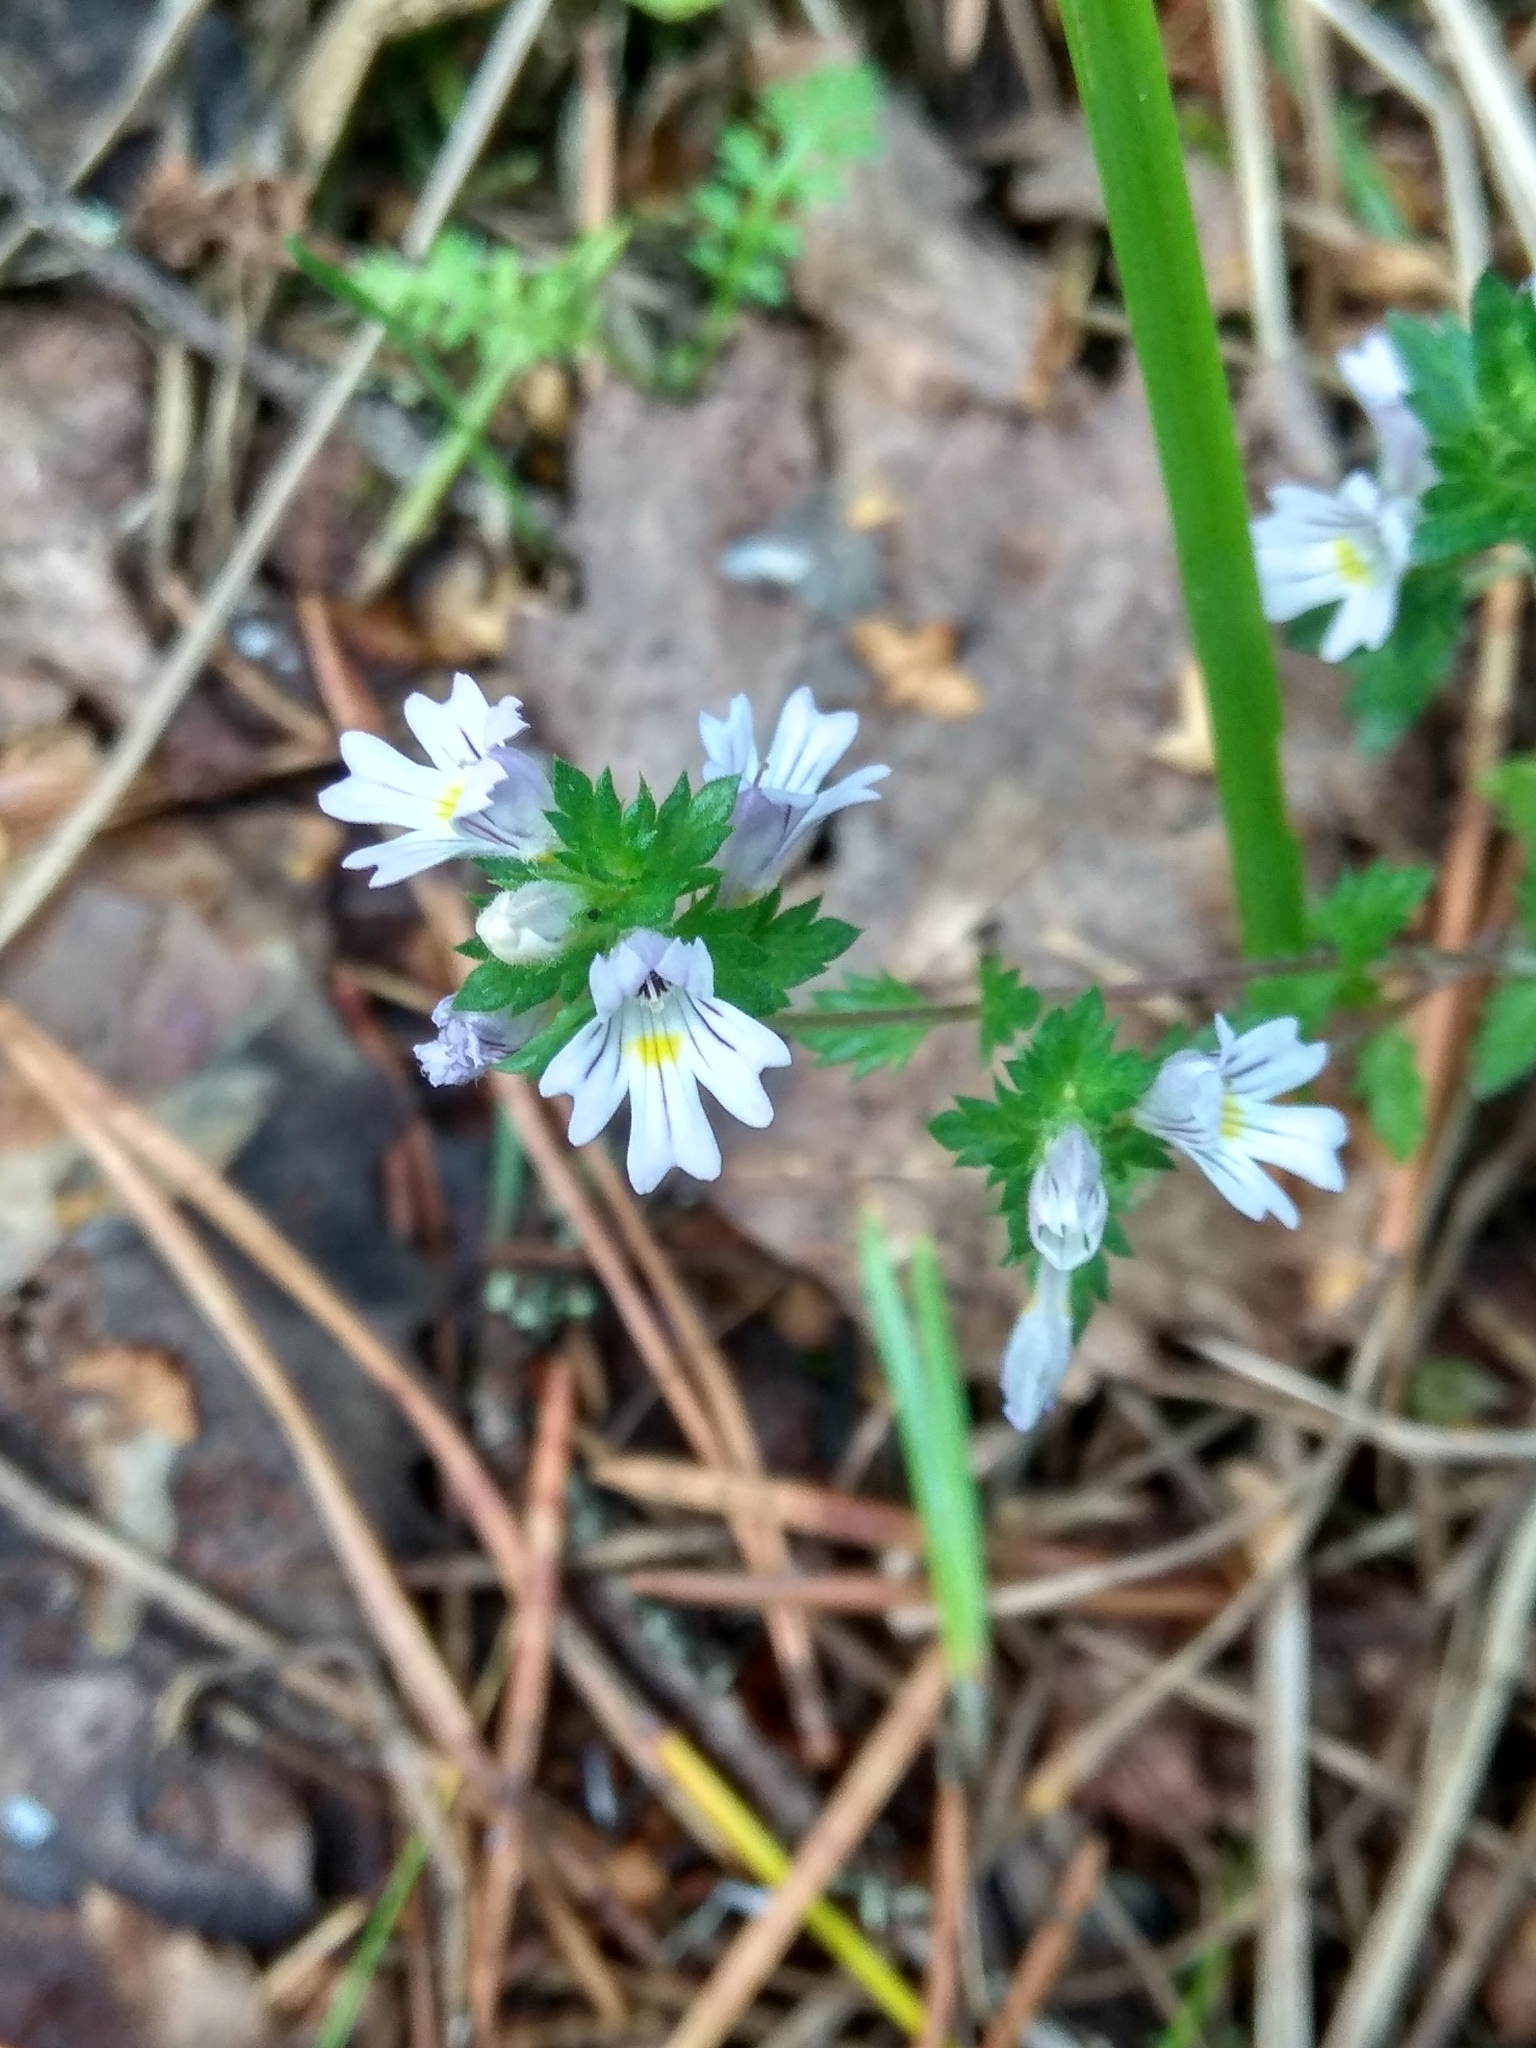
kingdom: Plantae
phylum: Tracheophyta
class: Magnoliopsida
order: Lamiales
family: Orobanchaceae
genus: Euphrasia
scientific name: Euphrasia
